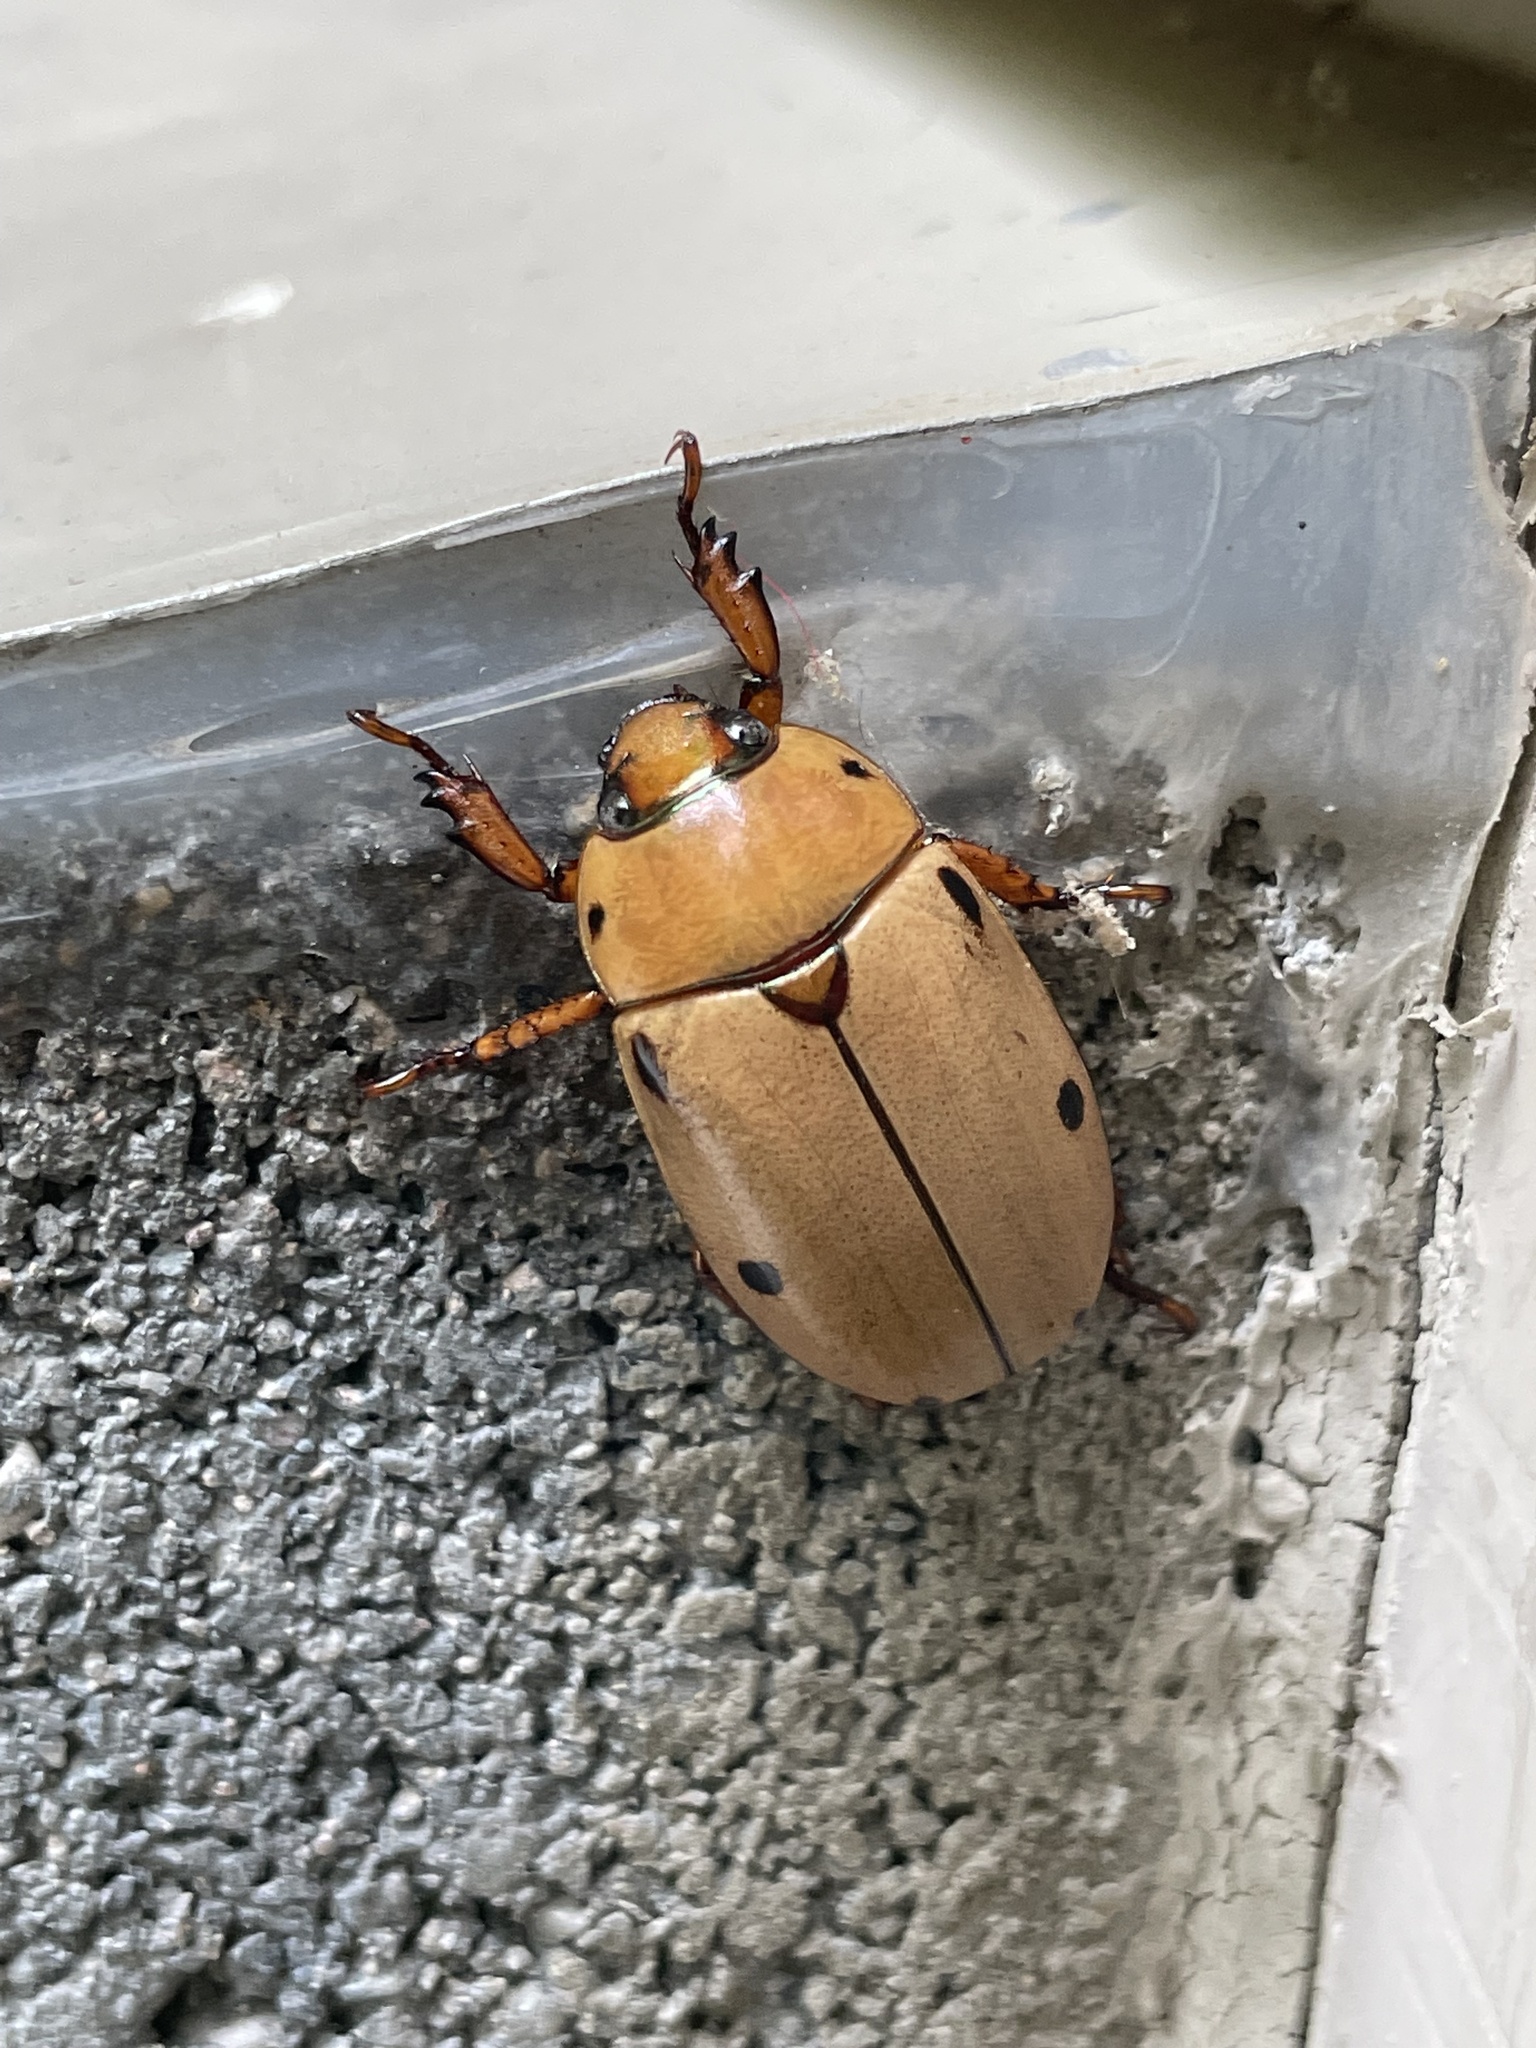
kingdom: Animalia
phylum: Arthropoda
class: Insecta
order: Coleoptera
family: Scarabaeidae
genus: Pelidnota
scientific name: Pelidnota punctata
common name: Grapevine beetle
